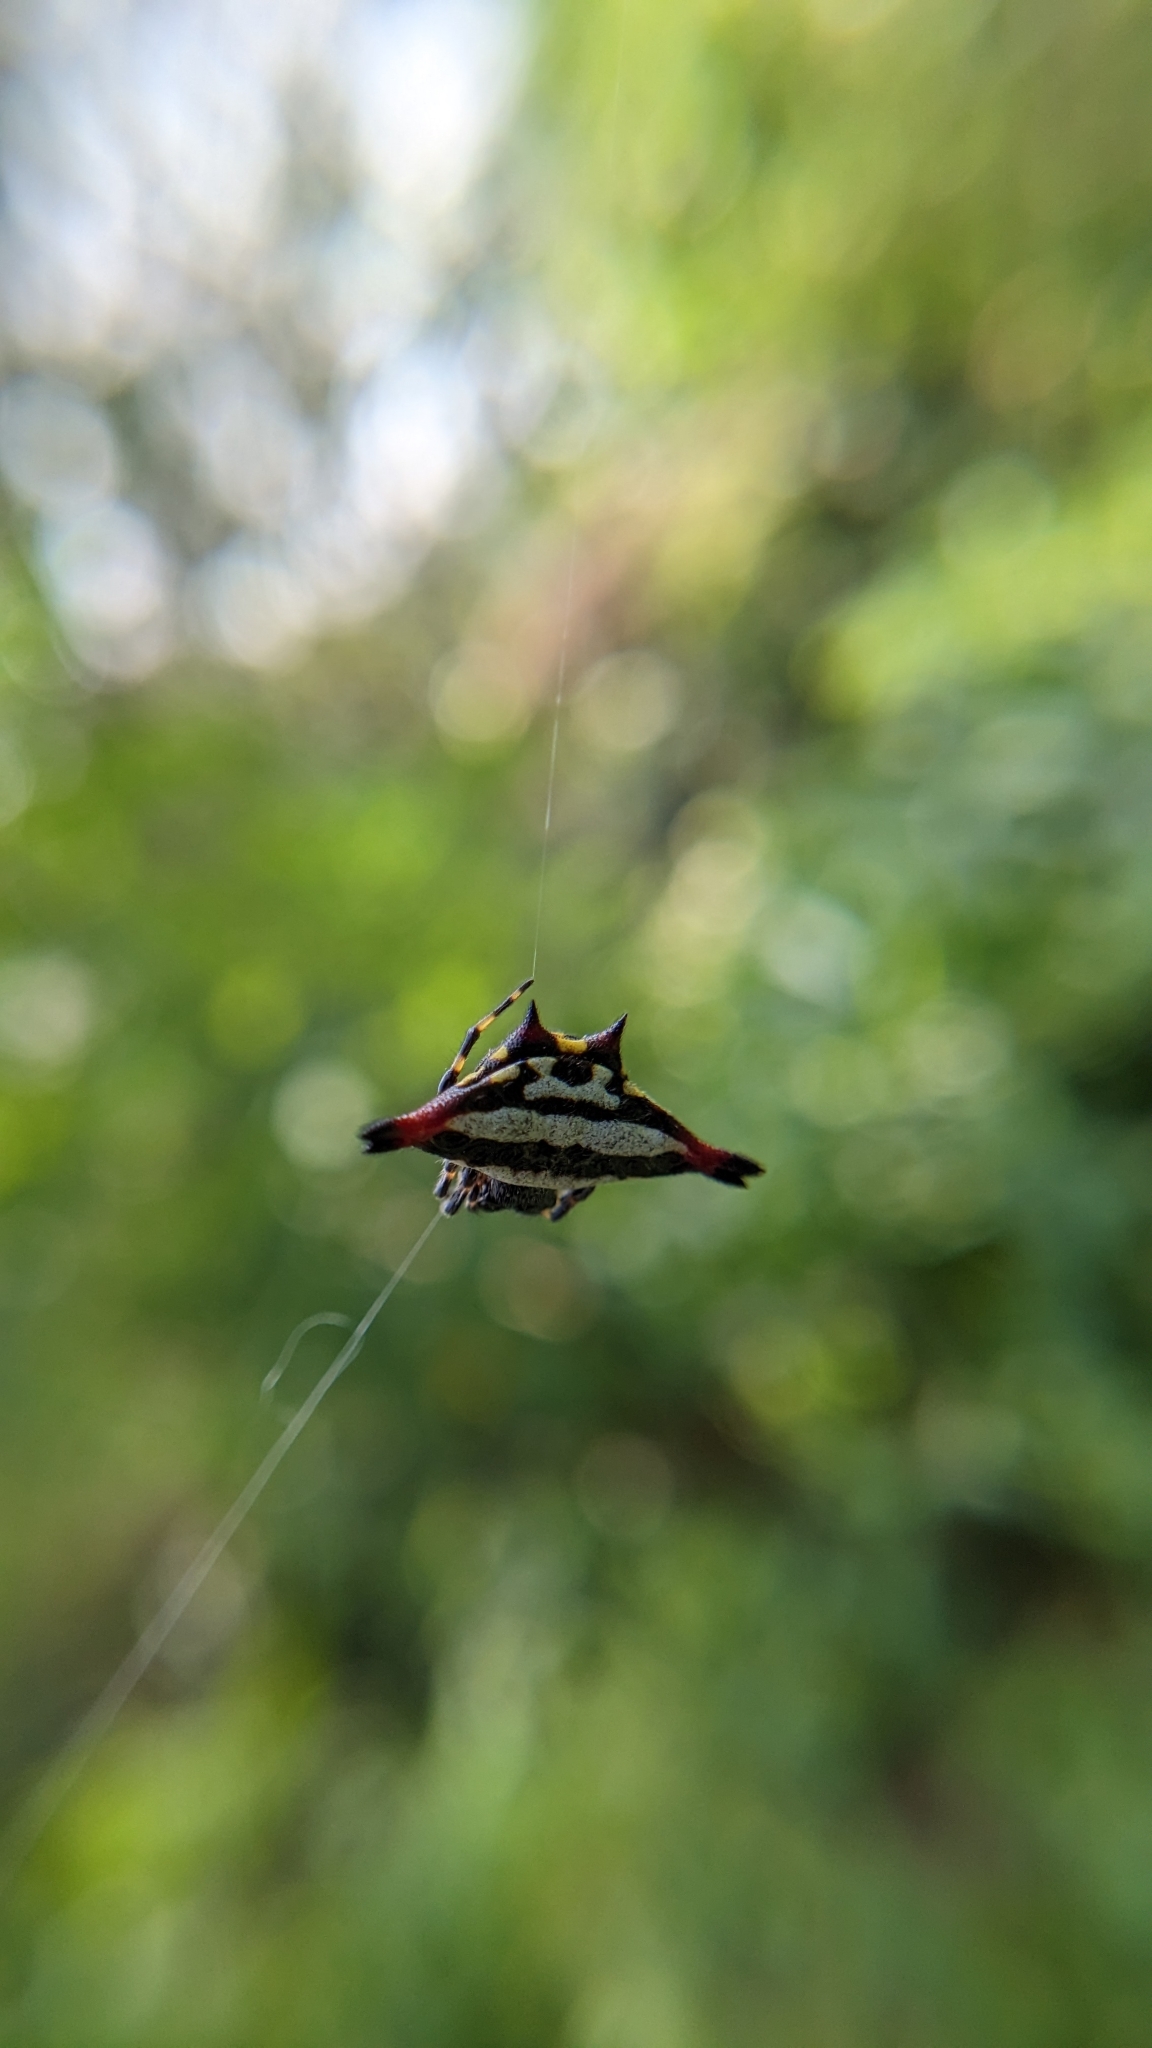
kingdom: Animalia
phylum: Arthropoda
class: Arachnida
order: Araneae
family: Araneidae
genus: Gasteracantha
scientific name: Gasteracantha geminata
